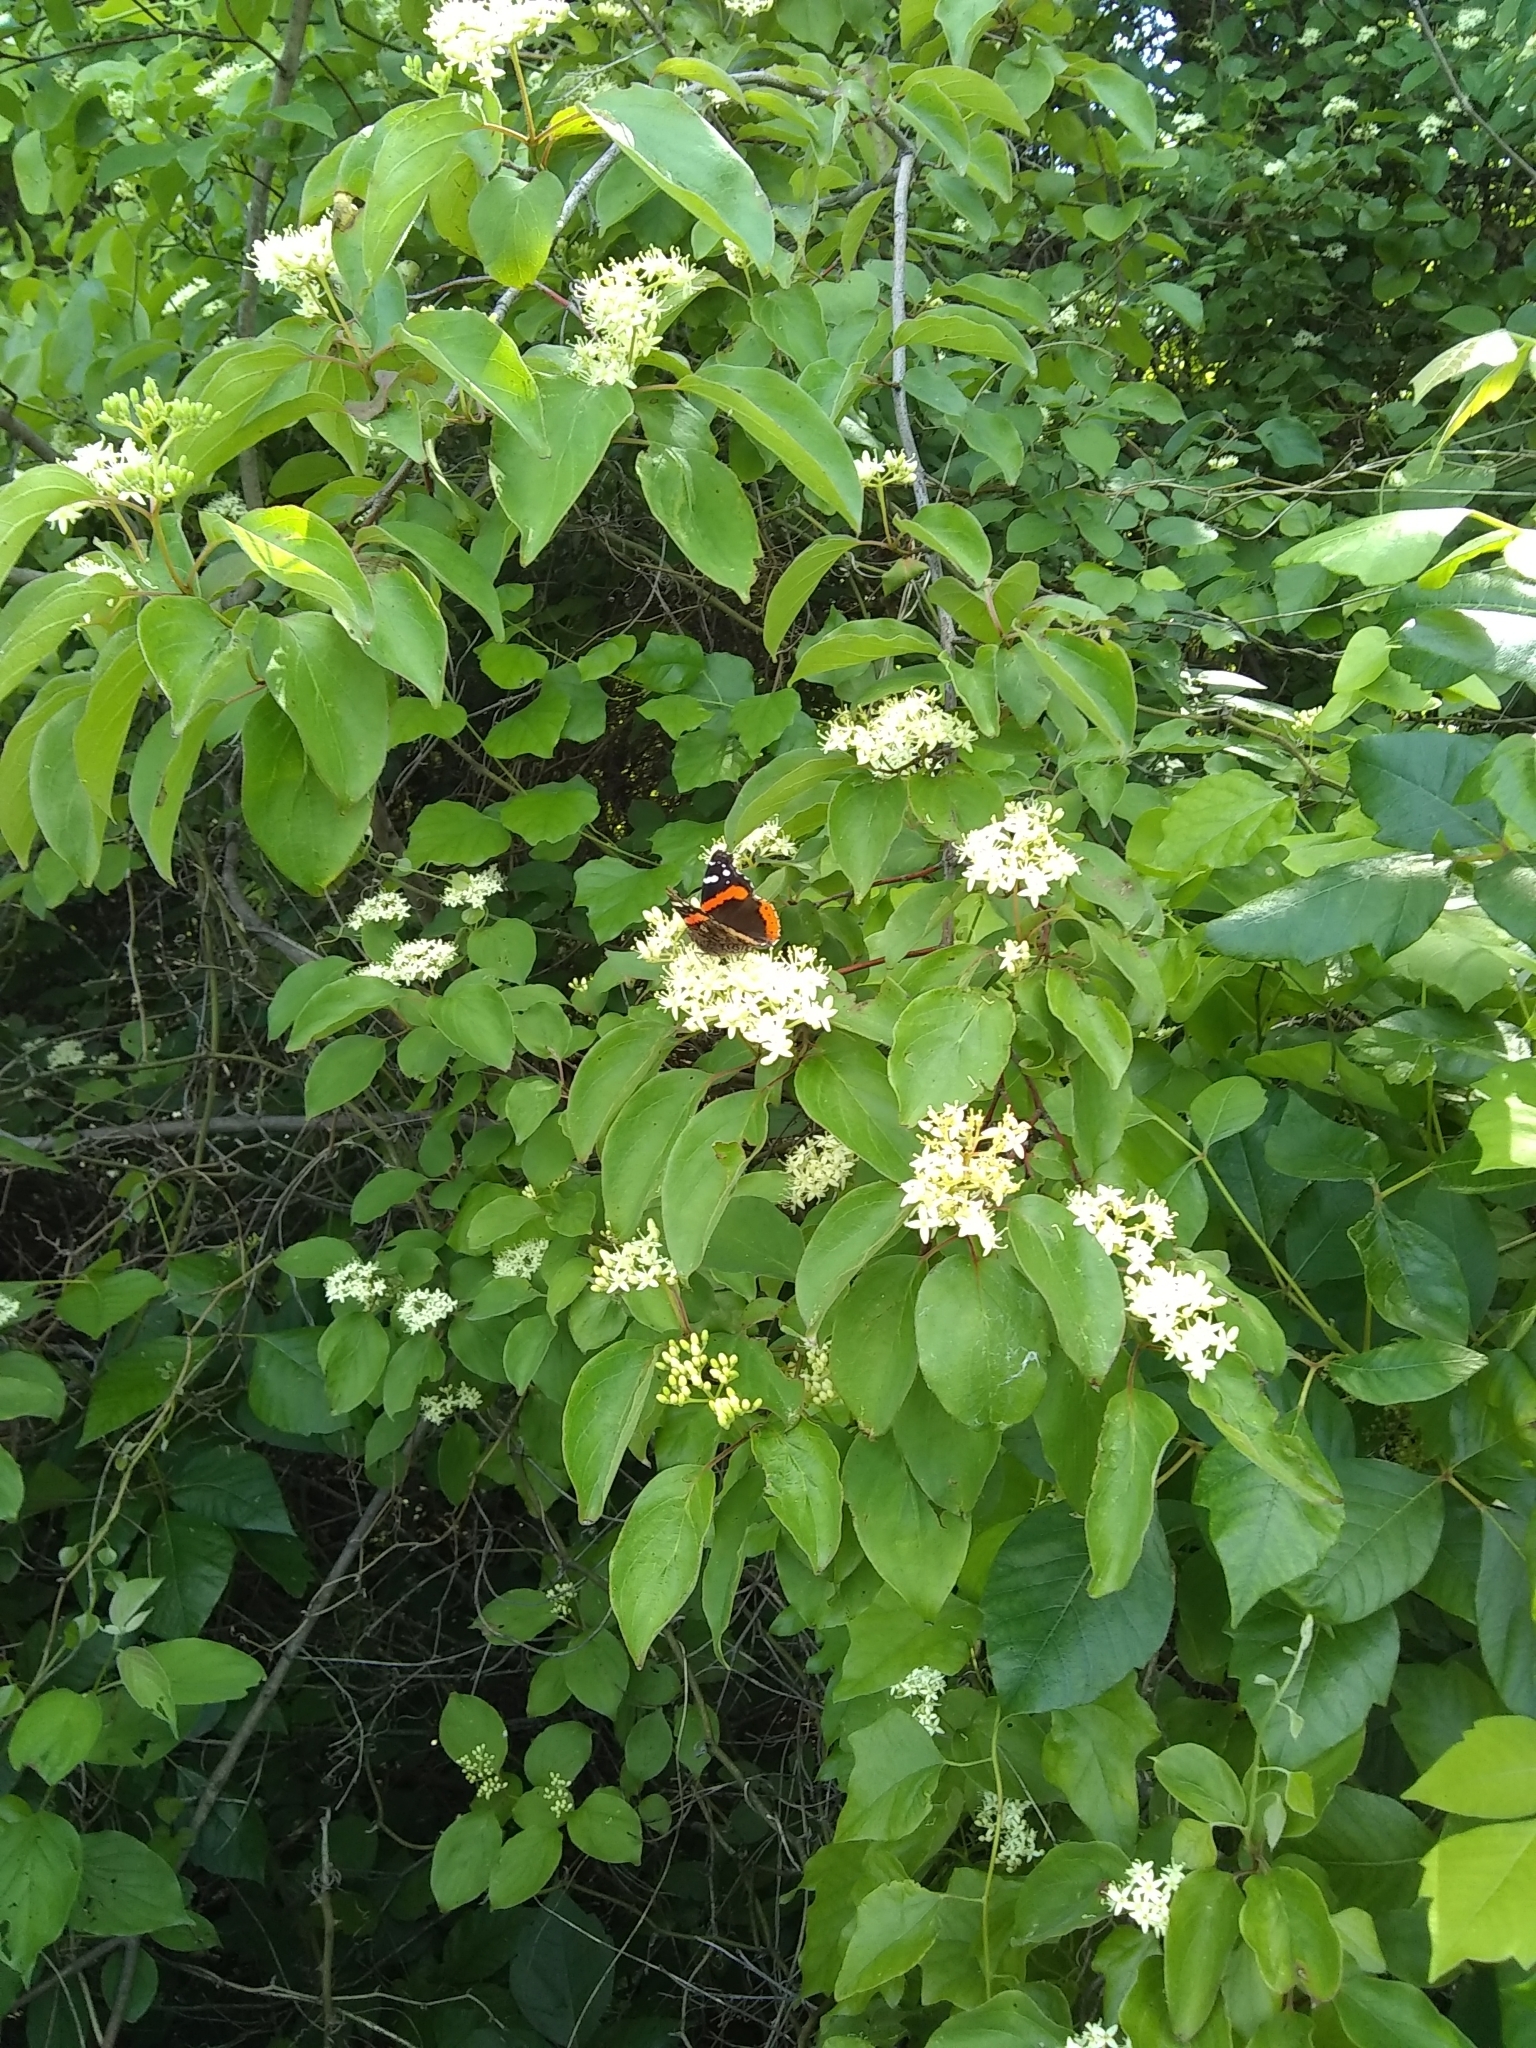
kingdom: Animalia
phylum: Arthropoda
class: Insecta
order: Lepidoptera
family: Nymphalidae
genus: Vanessa
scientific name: Vanessa atalanta
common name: Red admiral
